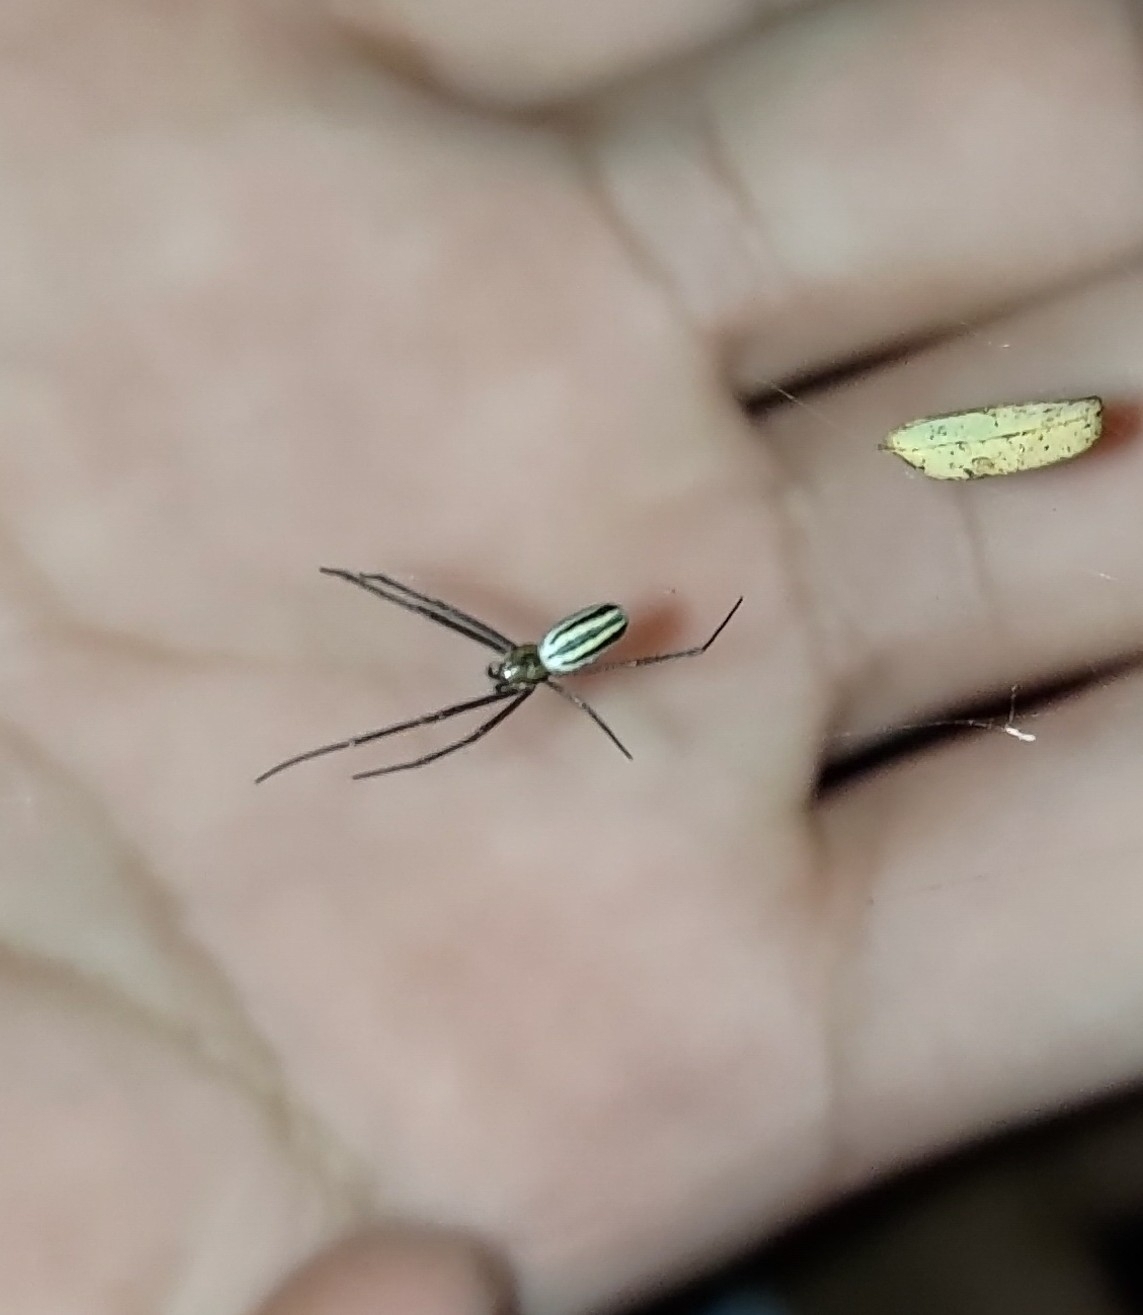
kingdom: Animalia
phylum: Arthropoda
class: Arachnida
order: Araneae
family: Araneidae
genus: Nephila
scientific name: Nephila pilipes
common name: Giant golden orb weaver
